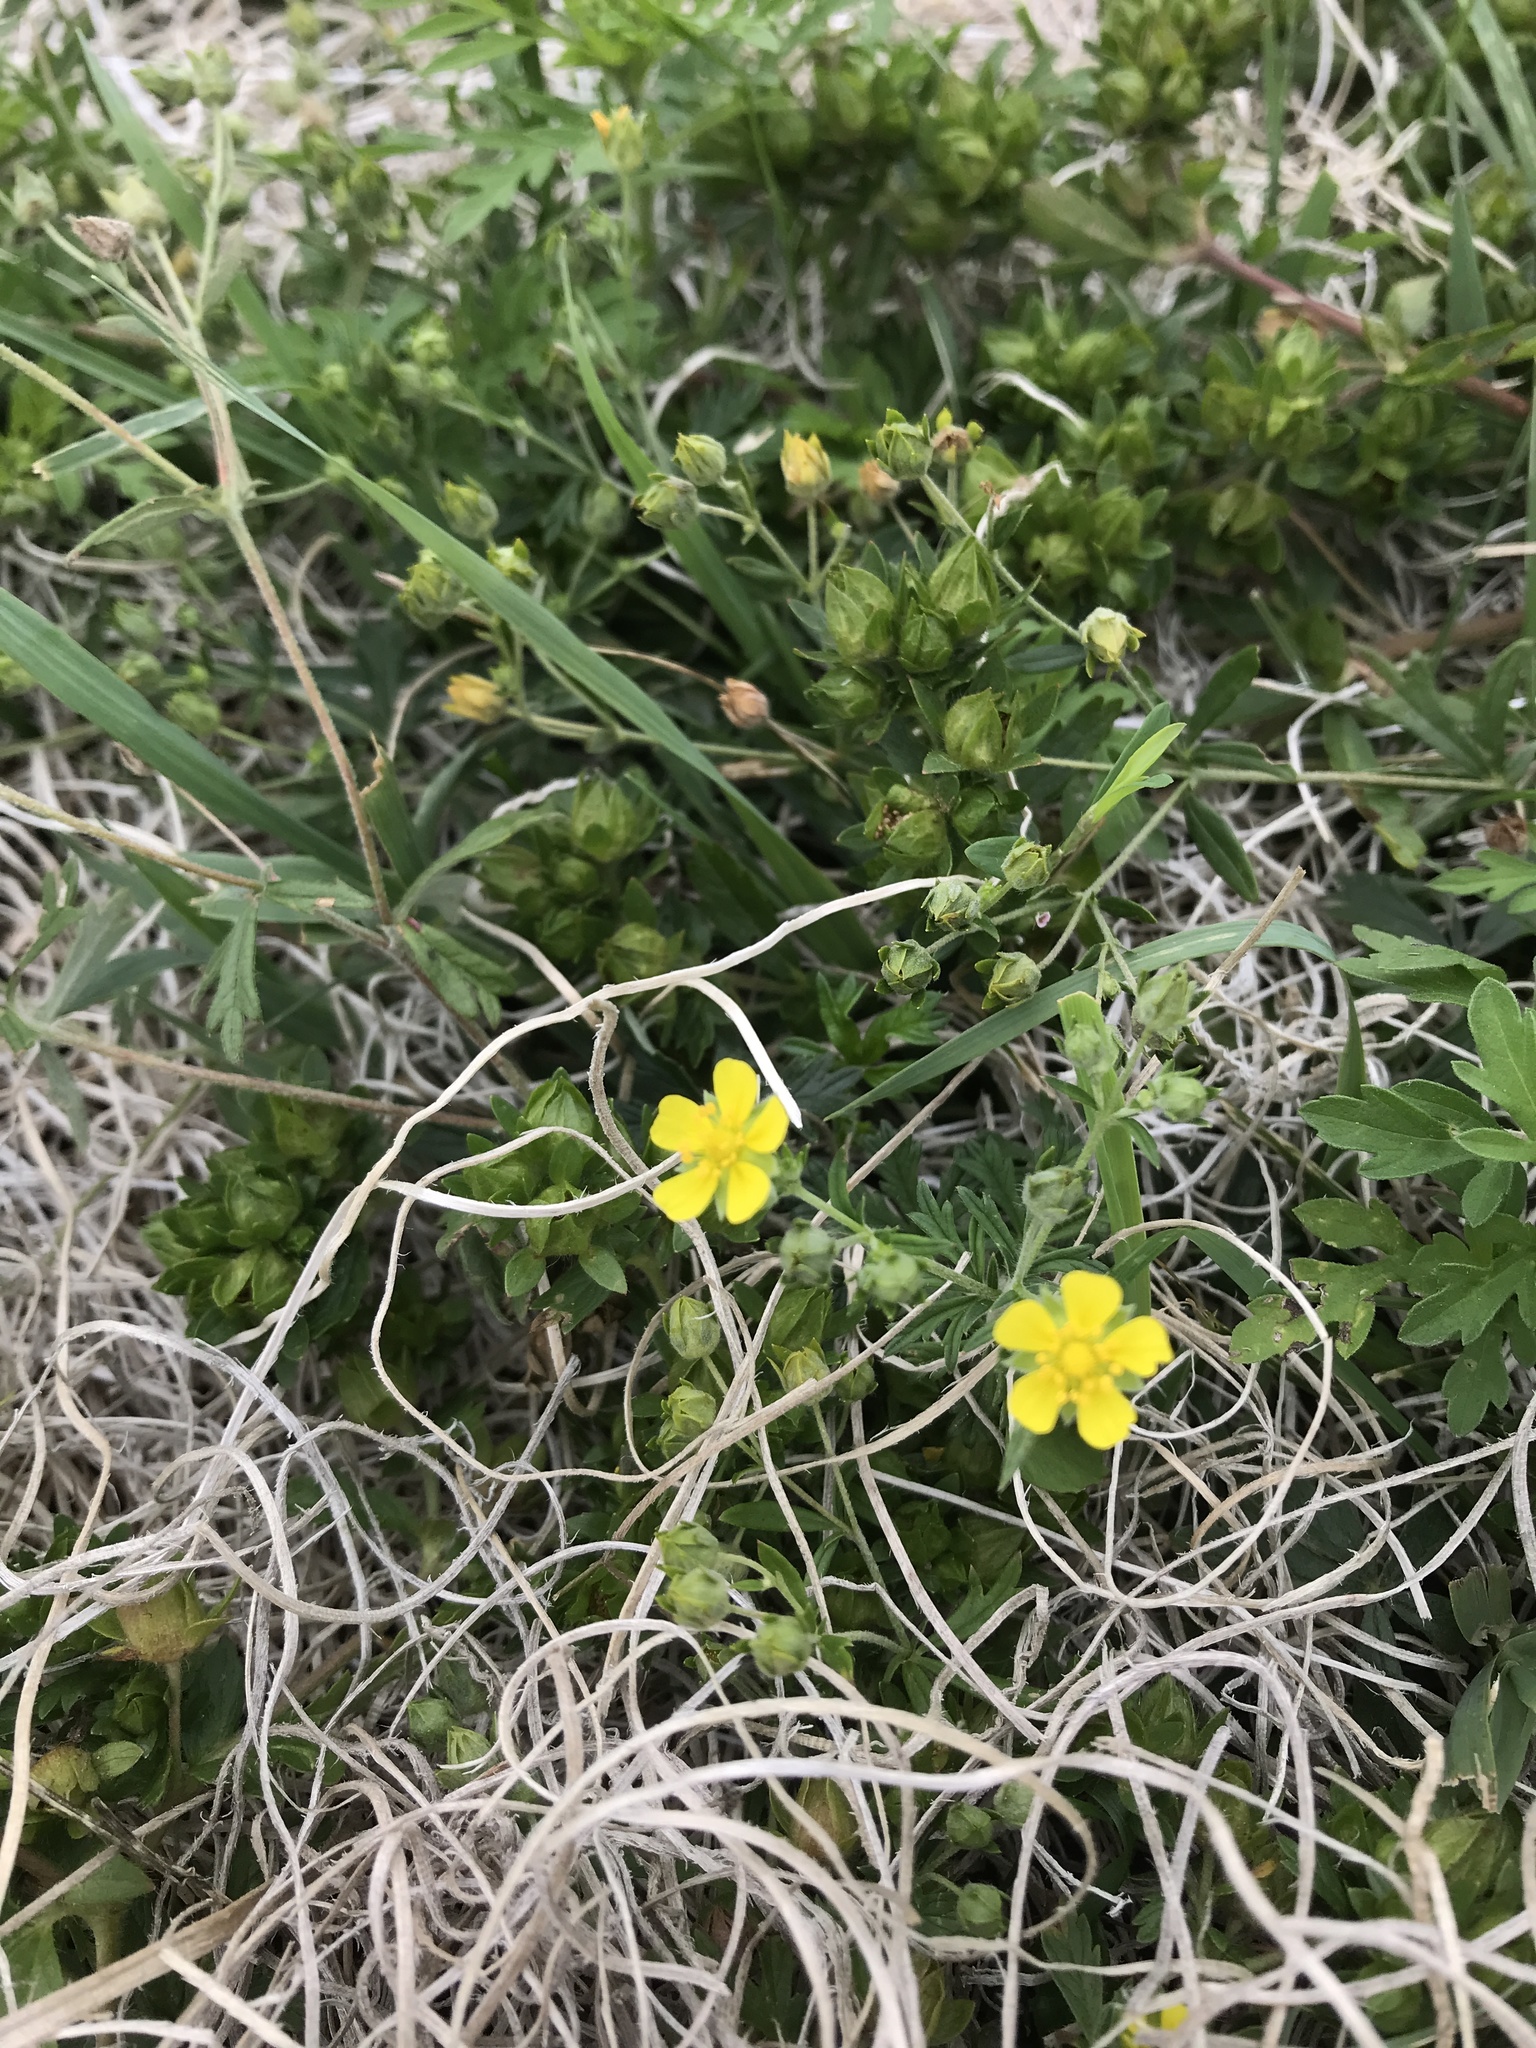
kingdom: Plantae
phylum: Tracheophyta
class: Magnoliopsida
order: Rosales
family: Rosaceae
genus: Potentilla
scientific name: Potentilla argentea
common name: Hoary cinquefoil
